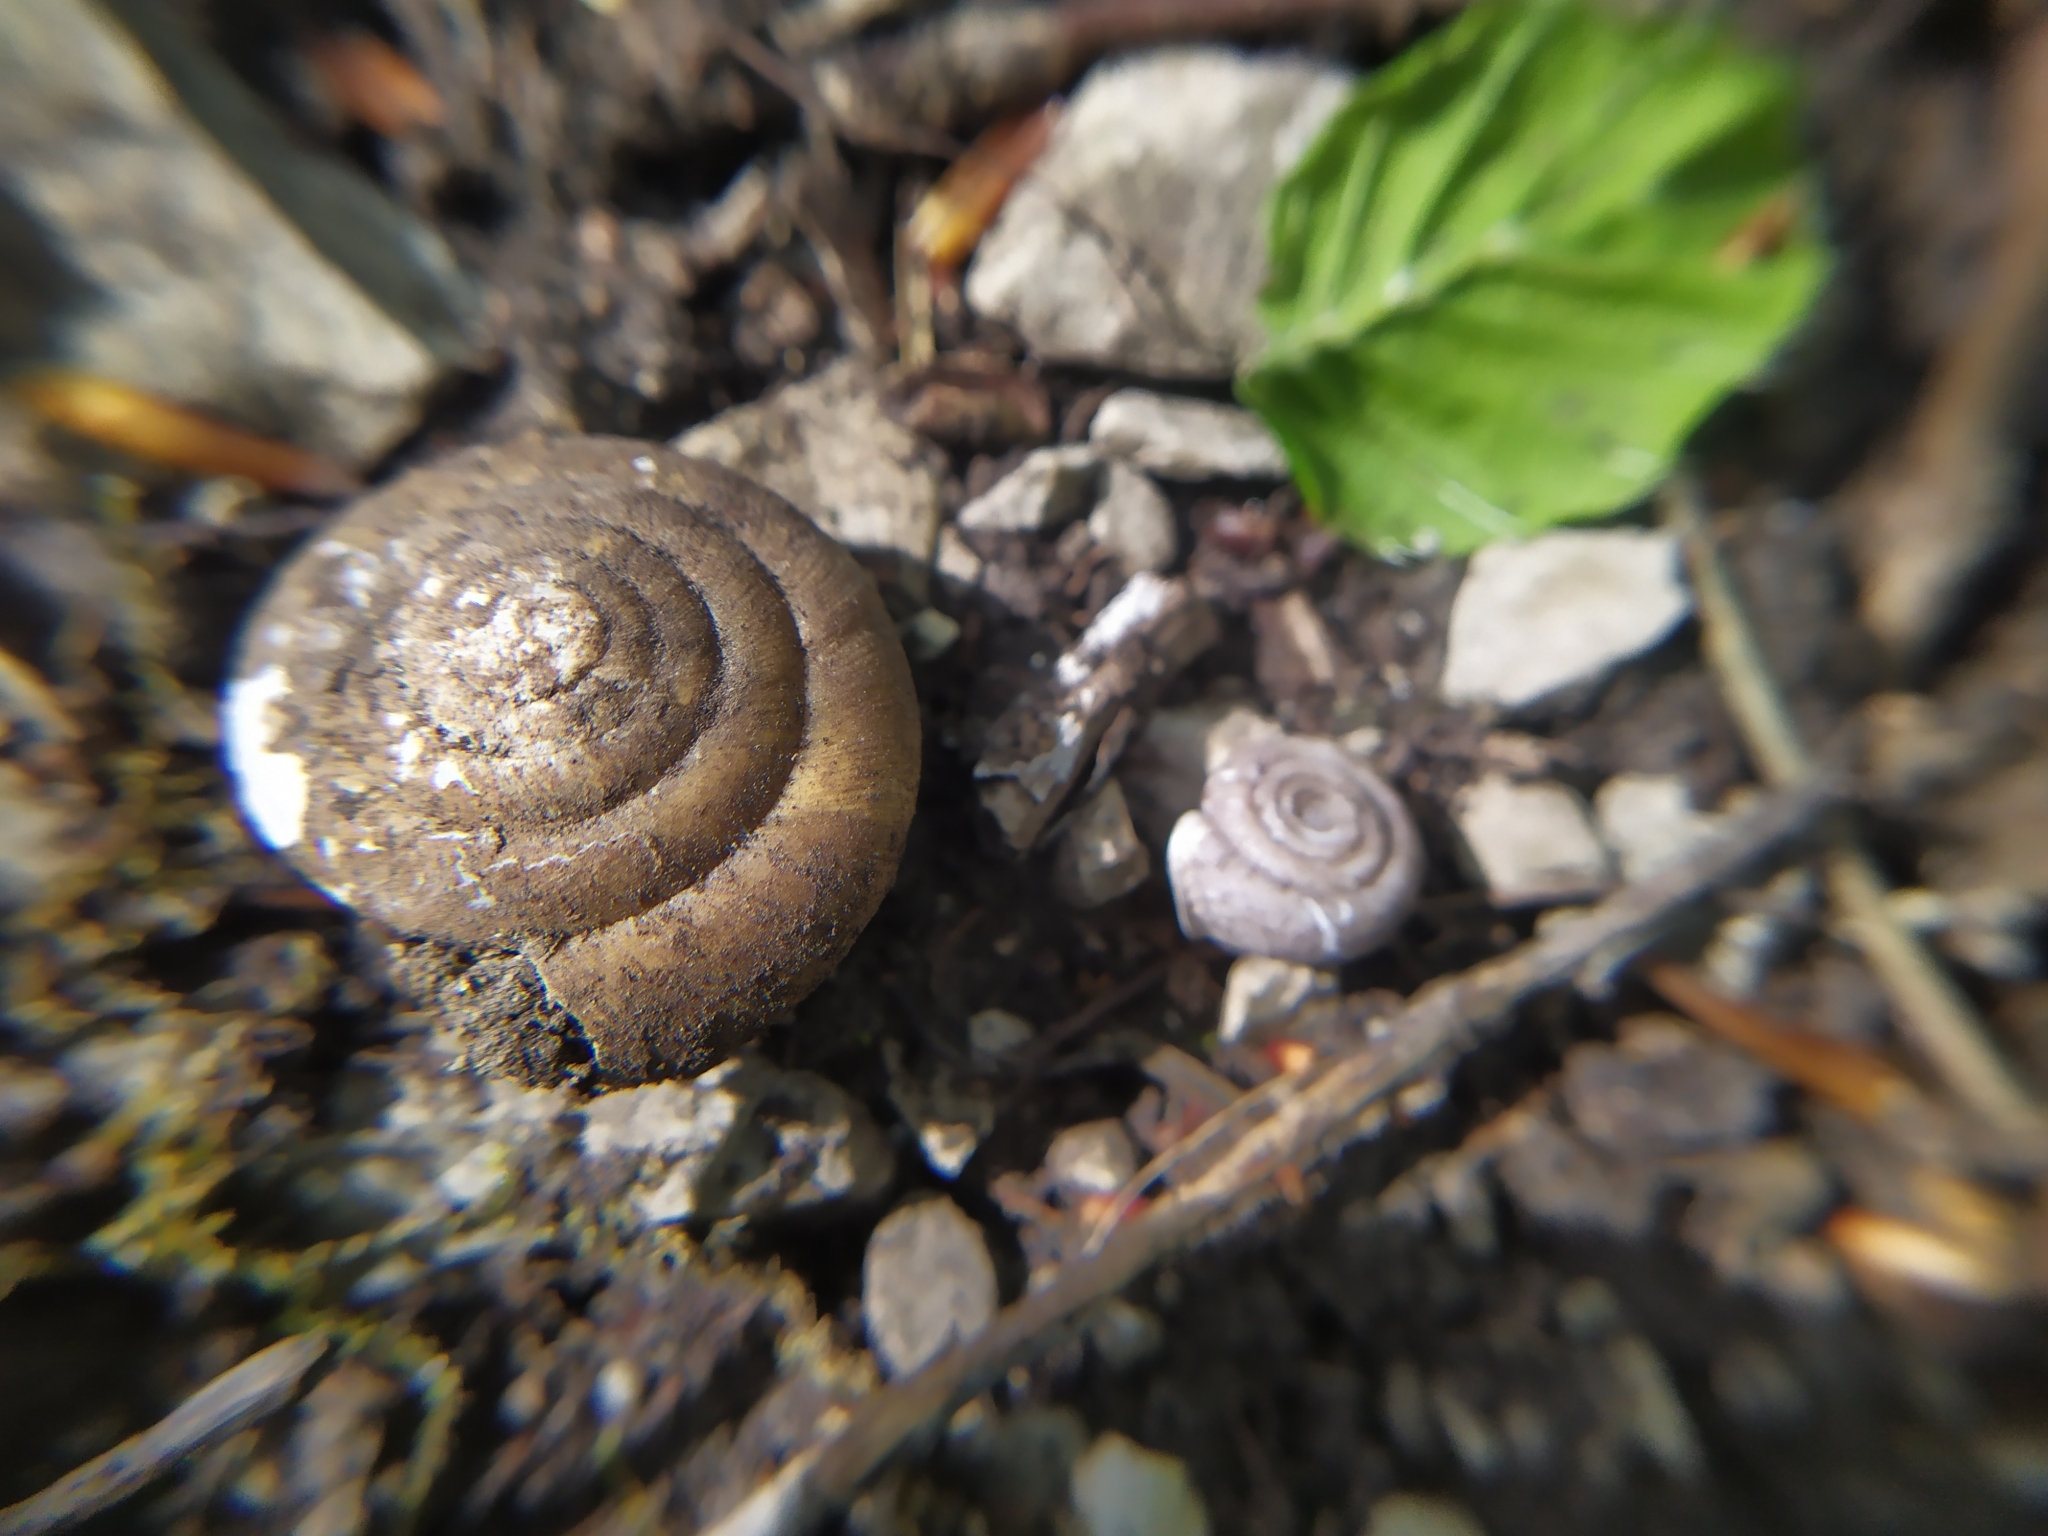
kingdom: Animalia
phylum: Mollusca
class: Gastropoda
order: Stylommatophora
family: Helicodontidae
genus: Helicodonta
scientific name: Helicodonta obvoluta
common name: Cheese snail
